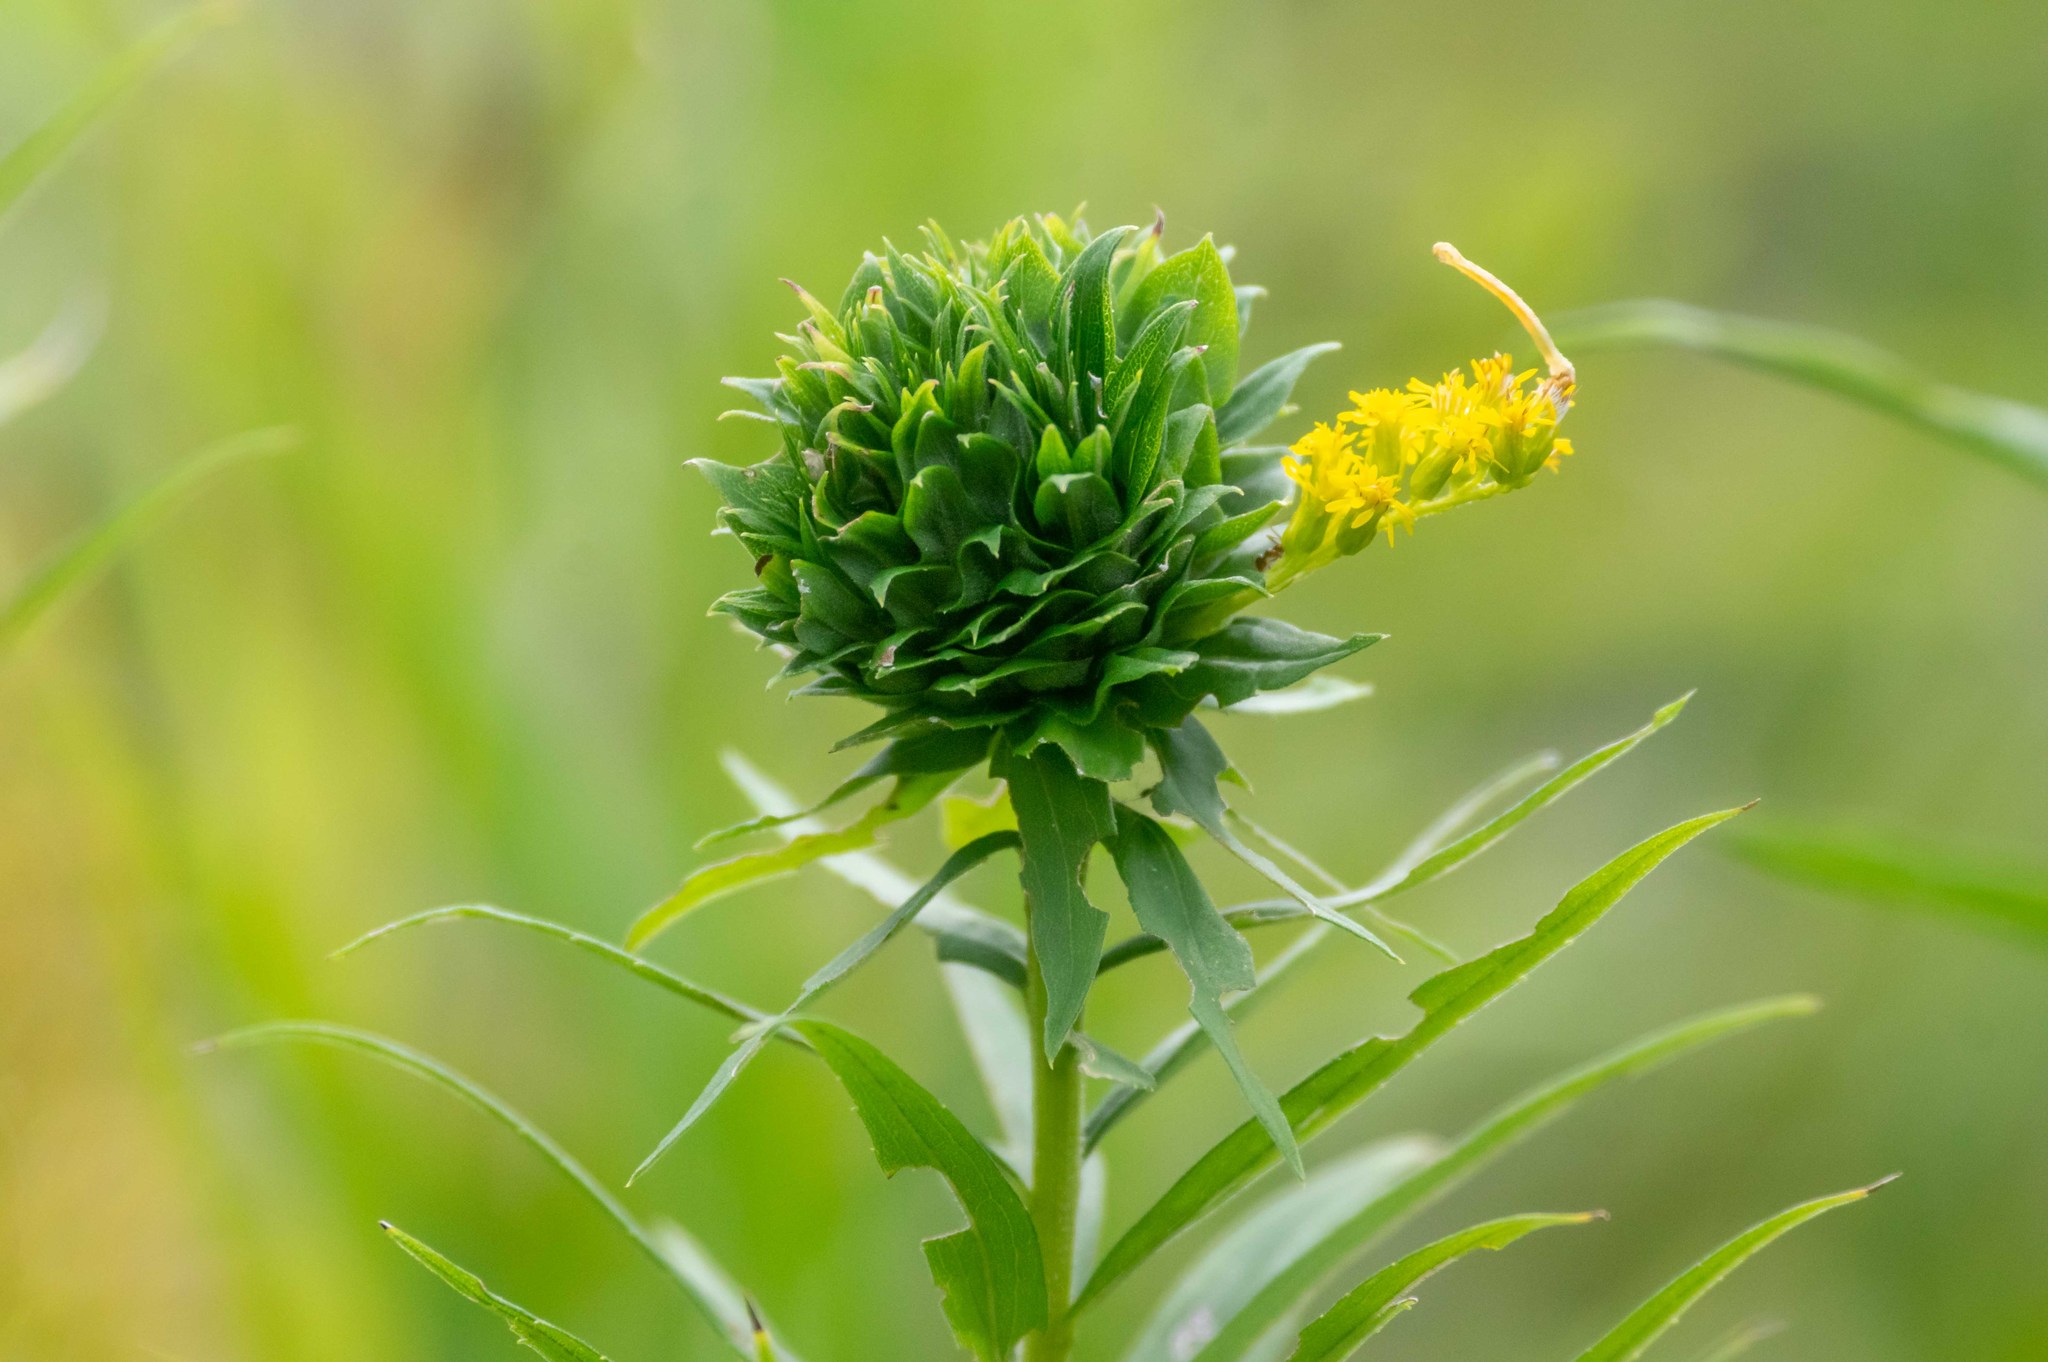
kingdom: Animalia
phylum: Arthropoda
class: Insecta
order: Diptera
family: Cecidomyiidae
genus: Rhopalomyia
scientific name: Rhopalomyia solidaginis
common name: Goldenrod bunch gall midge
